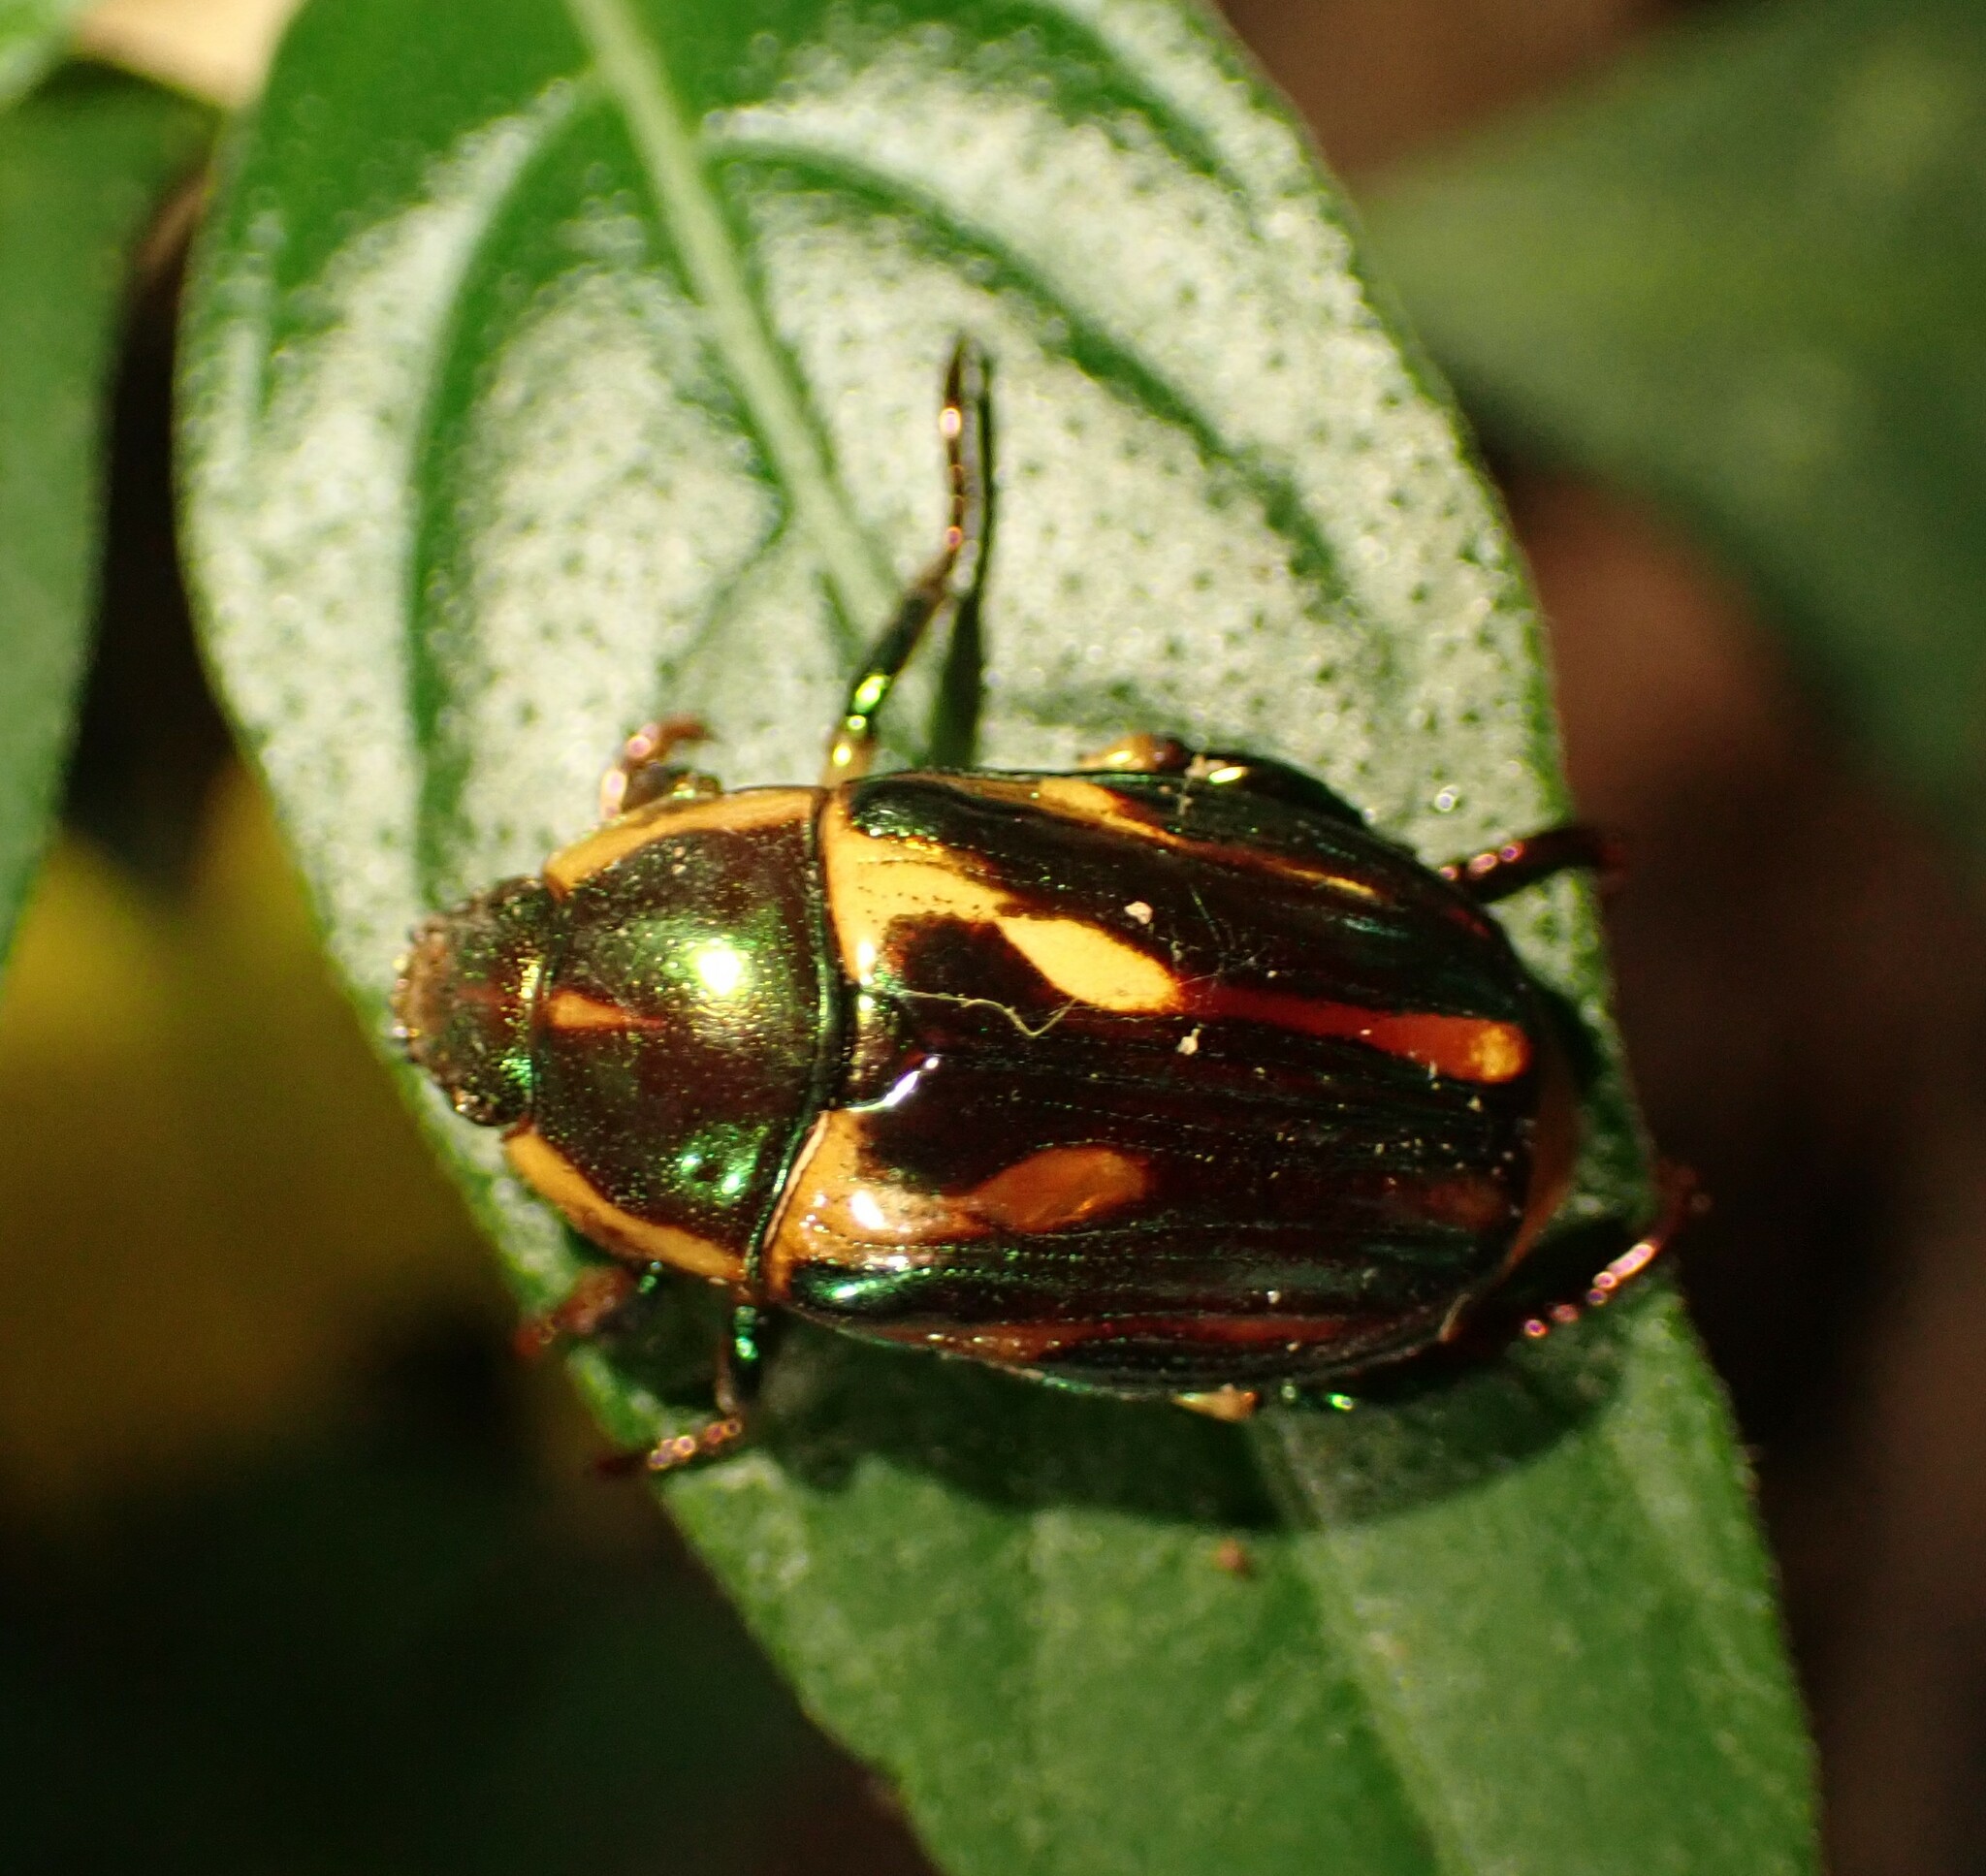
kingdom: Animalia
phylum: Arthropoda
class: Insecta
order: Coleoptera
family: Scarabaeidae
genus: Pelidnota
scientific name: Pelidnota liturella
